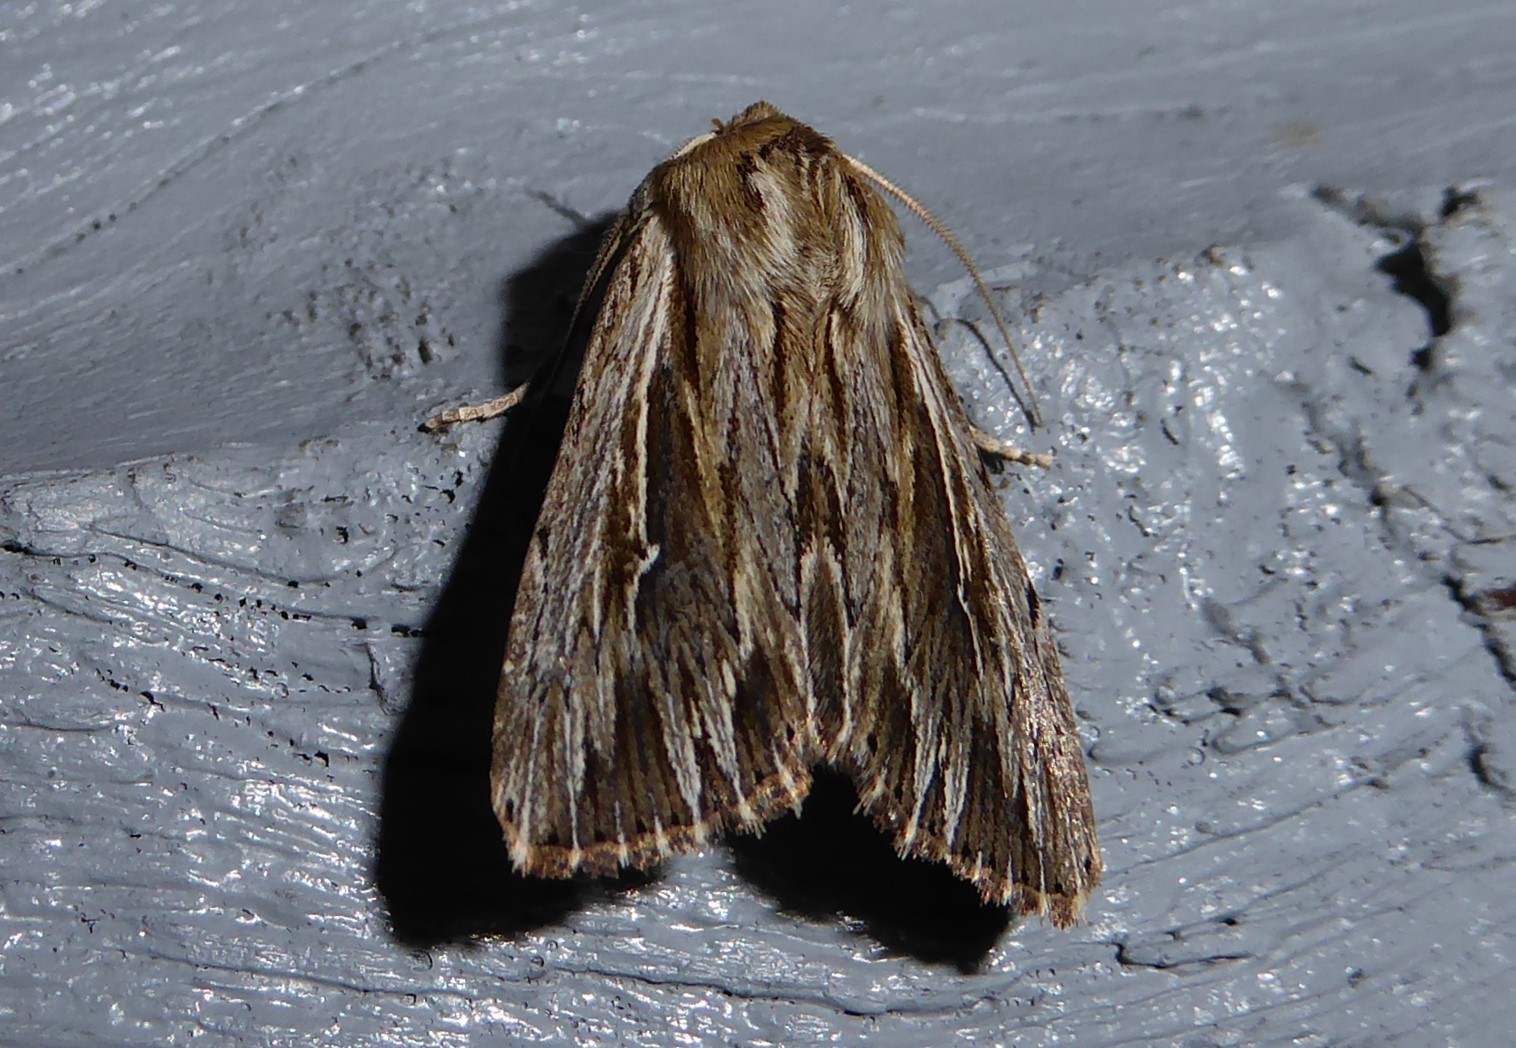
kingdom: Animalia
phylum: Arthropoda
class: Insecta
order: Lepidoptera
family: Noctuidae
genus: Persectania
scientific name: Persectania aversa
